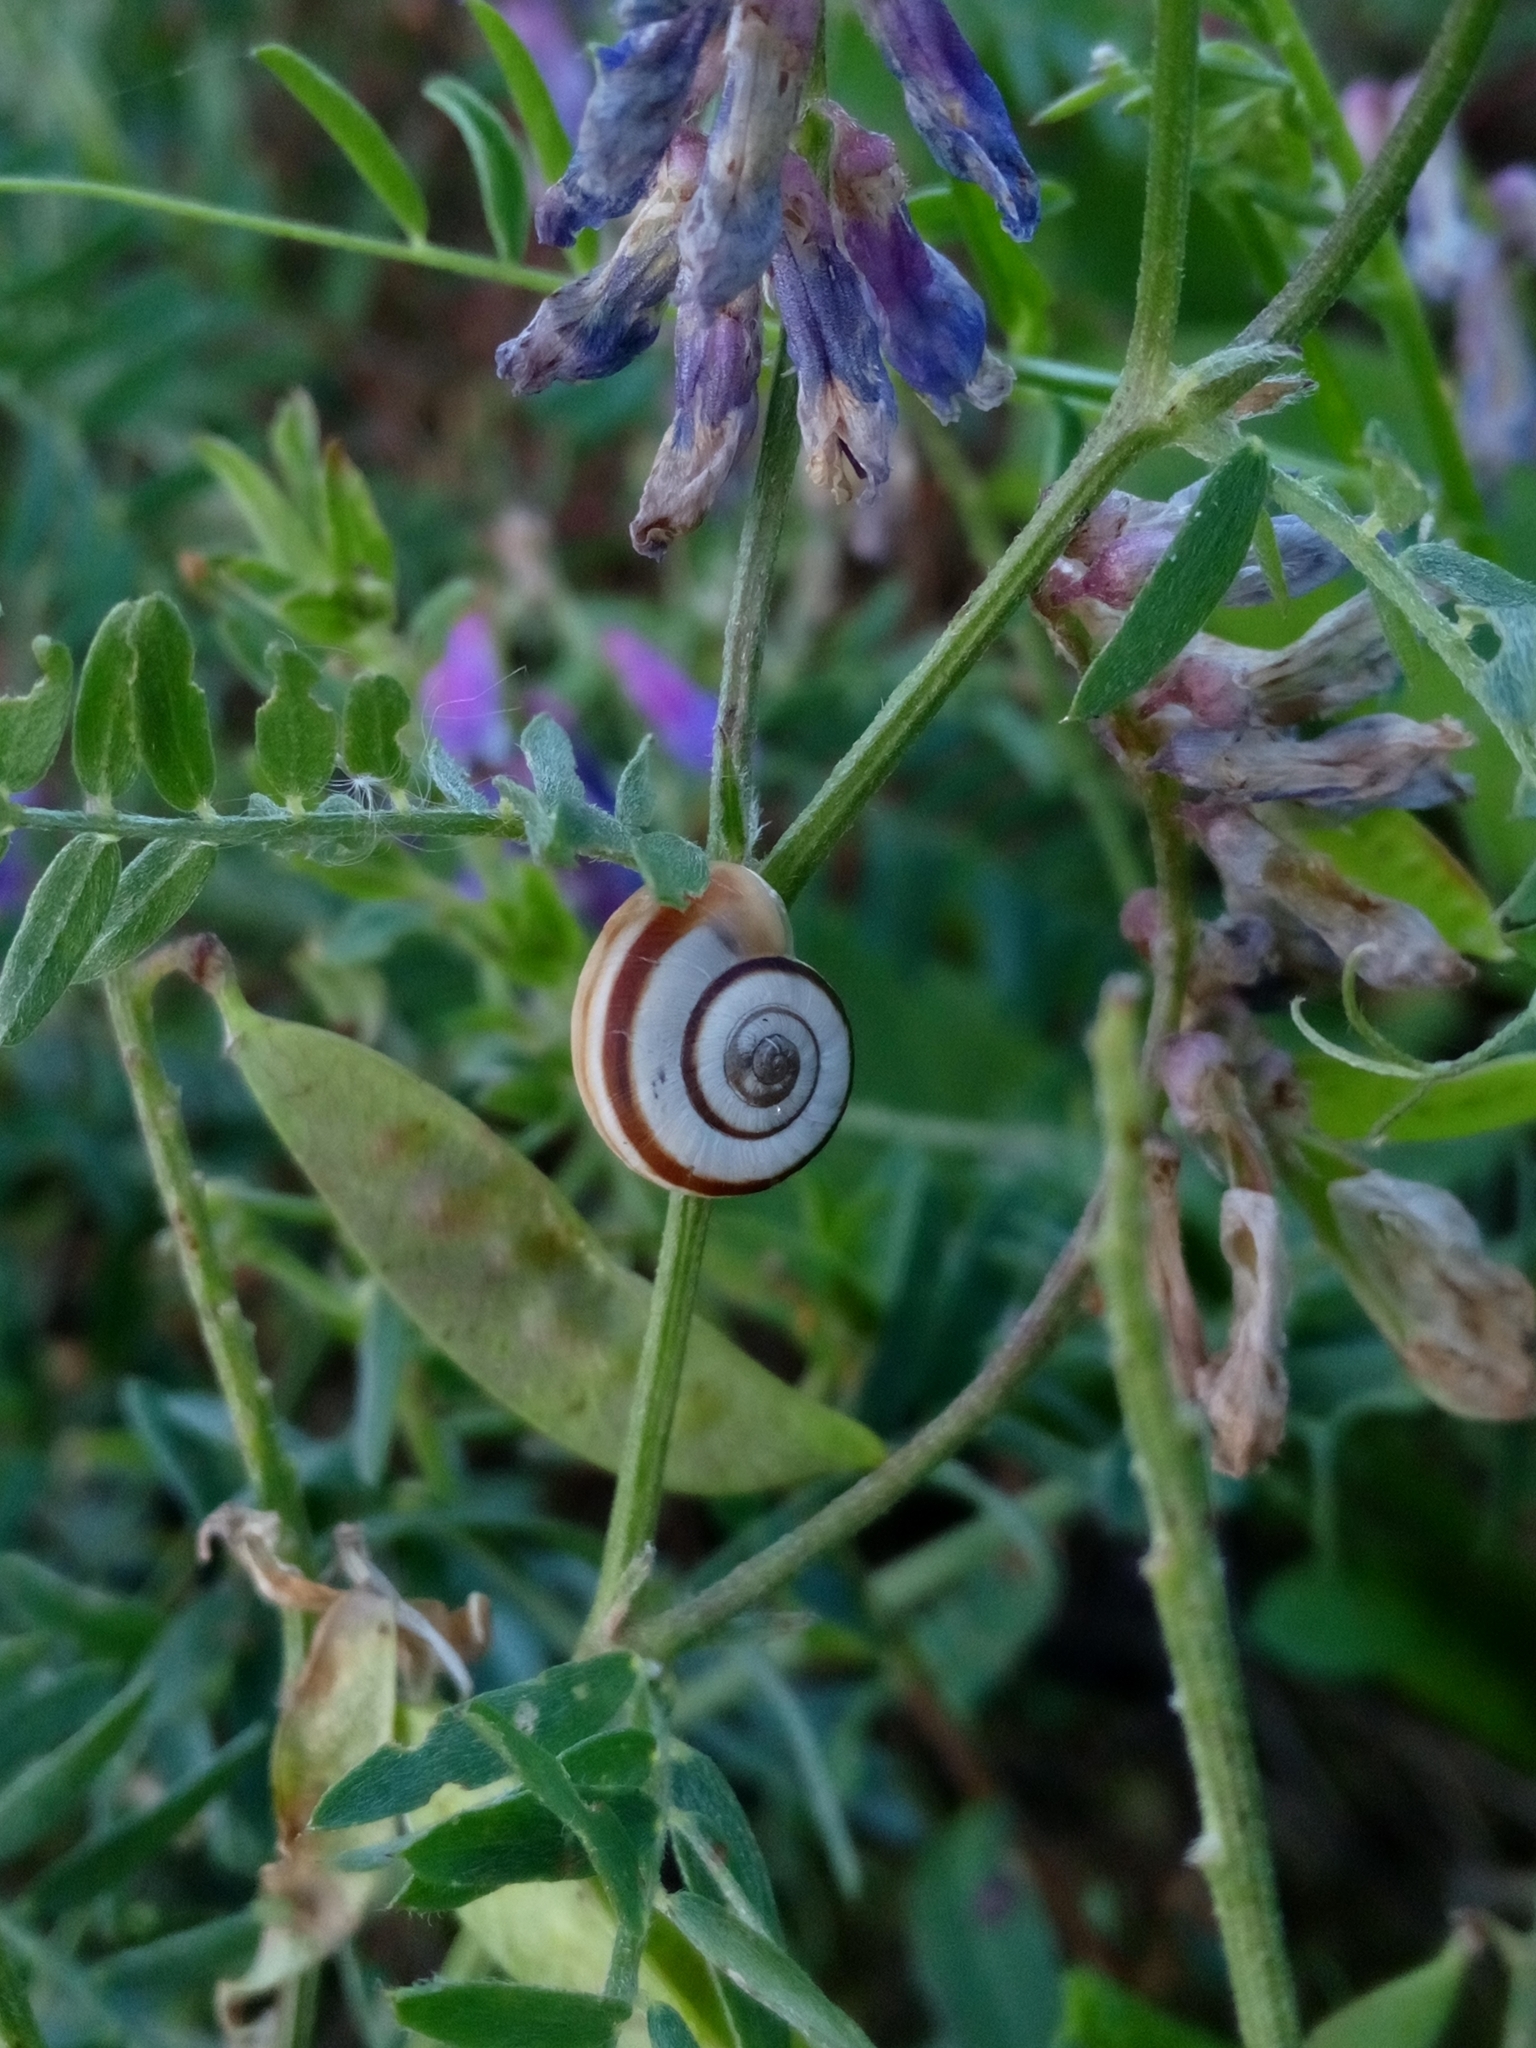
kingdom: Animalia
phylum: Mollusca
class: Gastropoda
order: Stylommatophora
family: Geomitridae
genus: Xerolenta
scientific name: Xerolenta obvia
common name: White heath snail
